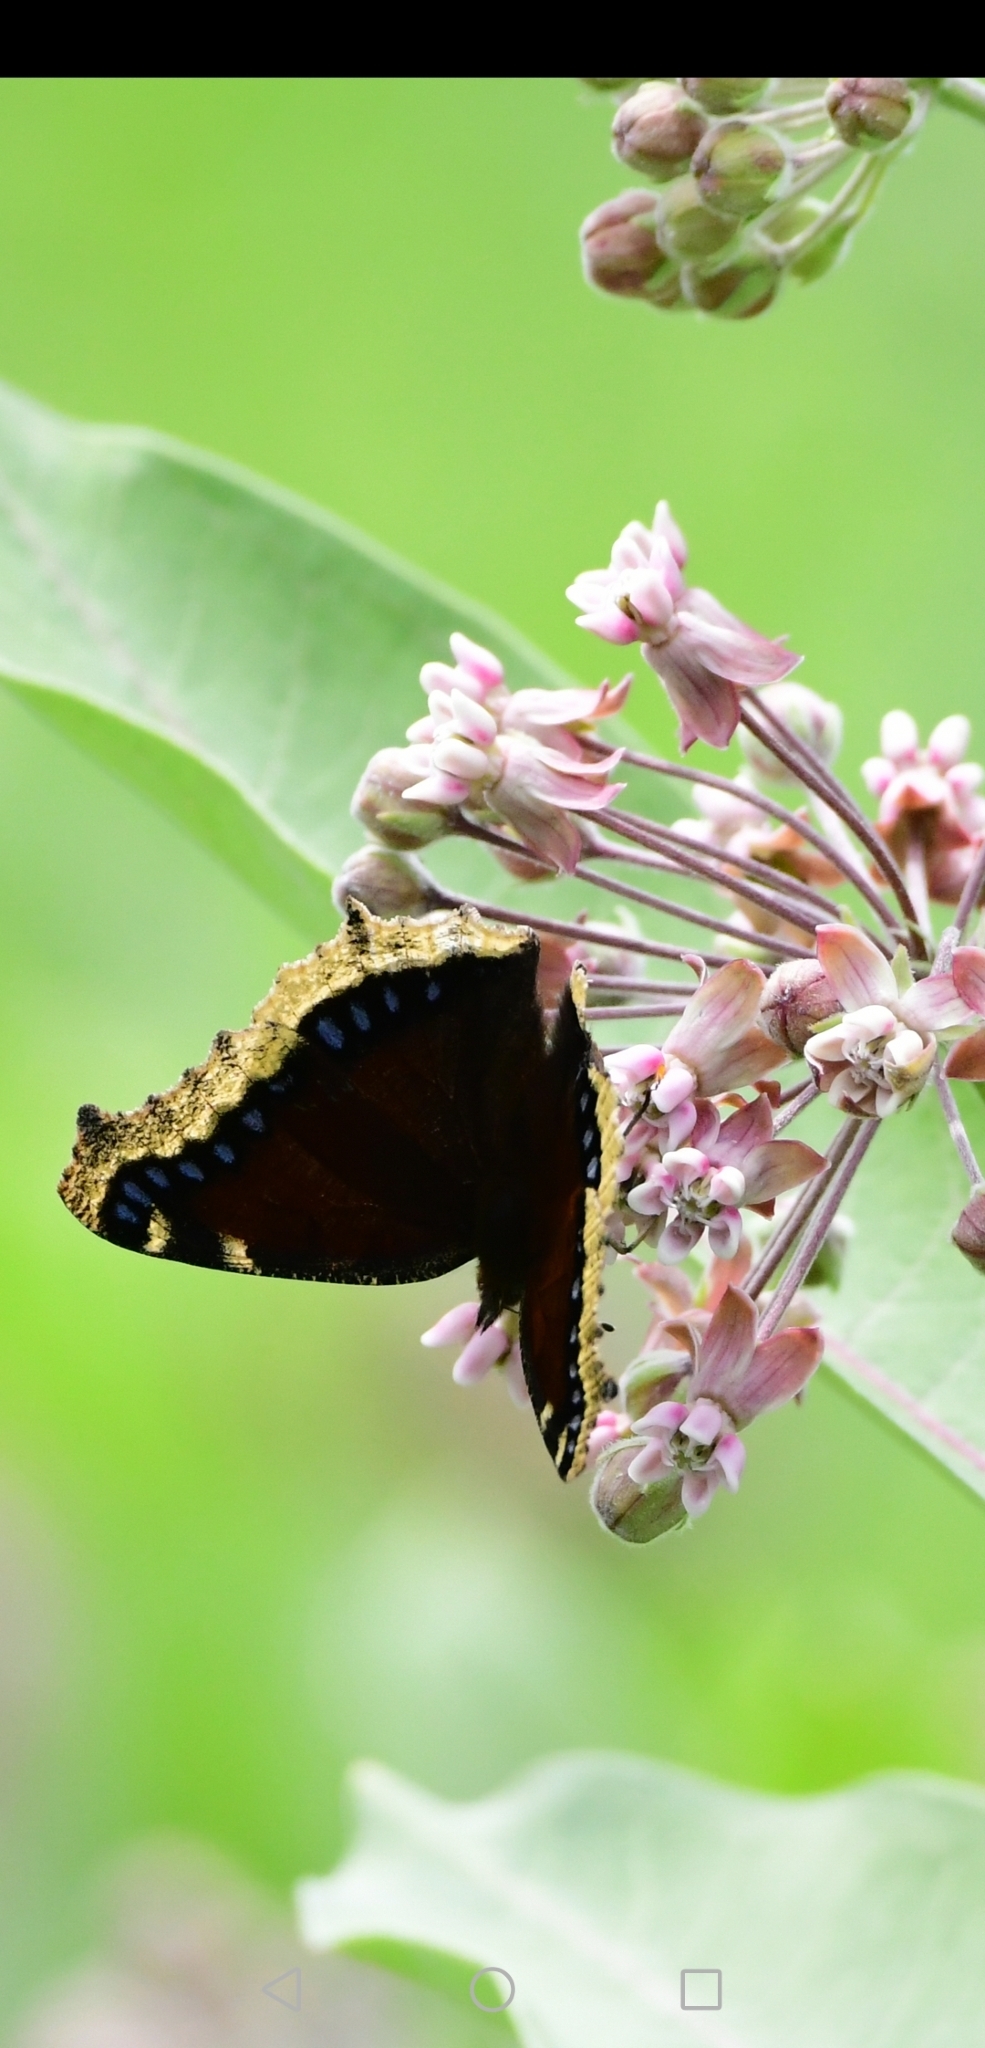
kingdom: Animalia
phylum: Arthropoda
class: Insecta
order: Lepidoptera
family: Nymphalidae
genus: Nymphalis
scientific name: Nymphalis antiopa
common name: Camberwell beauty
